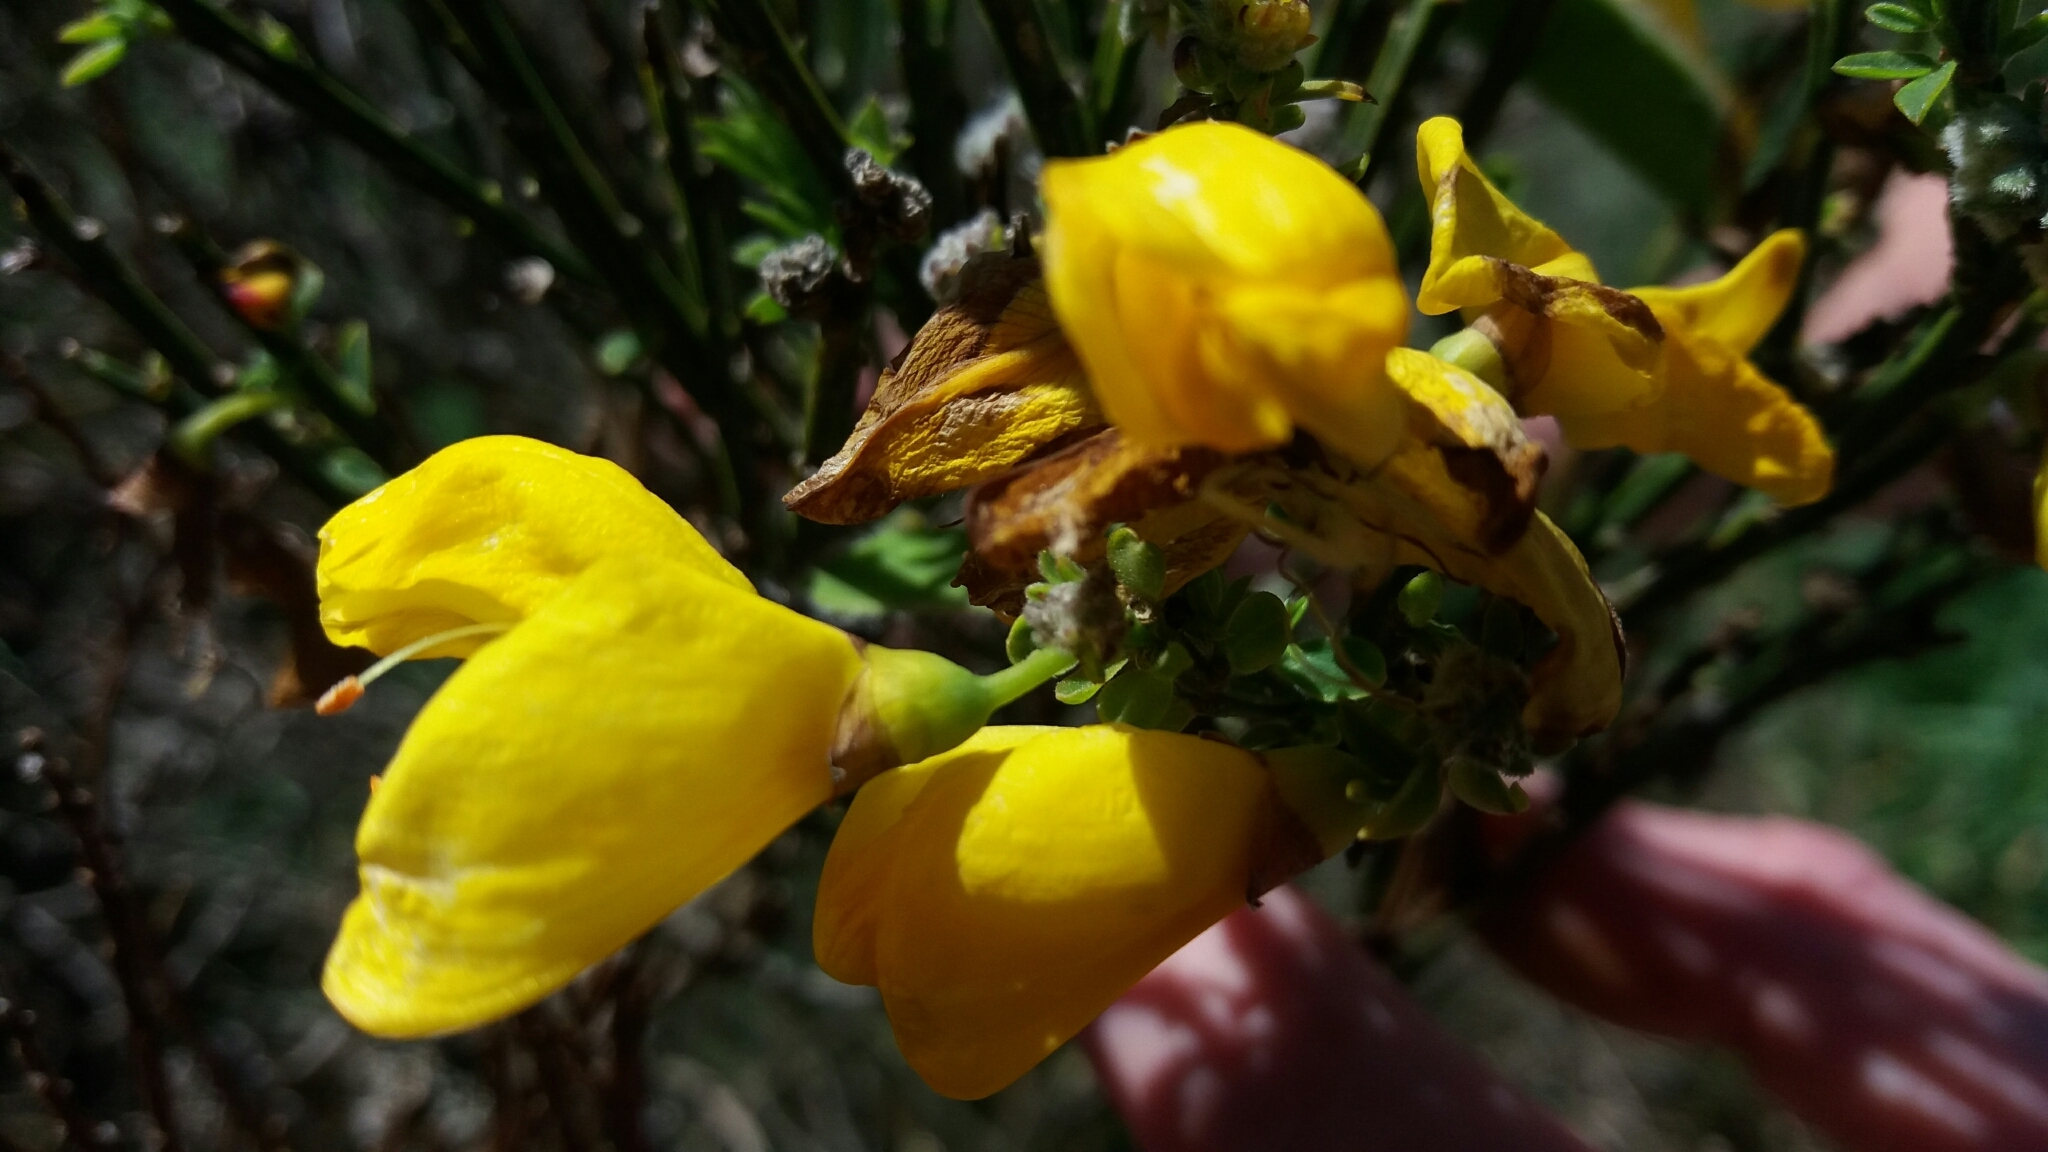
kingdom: Plantae
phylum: Tracheophyta
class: Magnoliopsida
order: Fabales
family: Fabaceae
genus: Cytisus
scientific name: Cytisus scoparius
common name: Scotch broom
